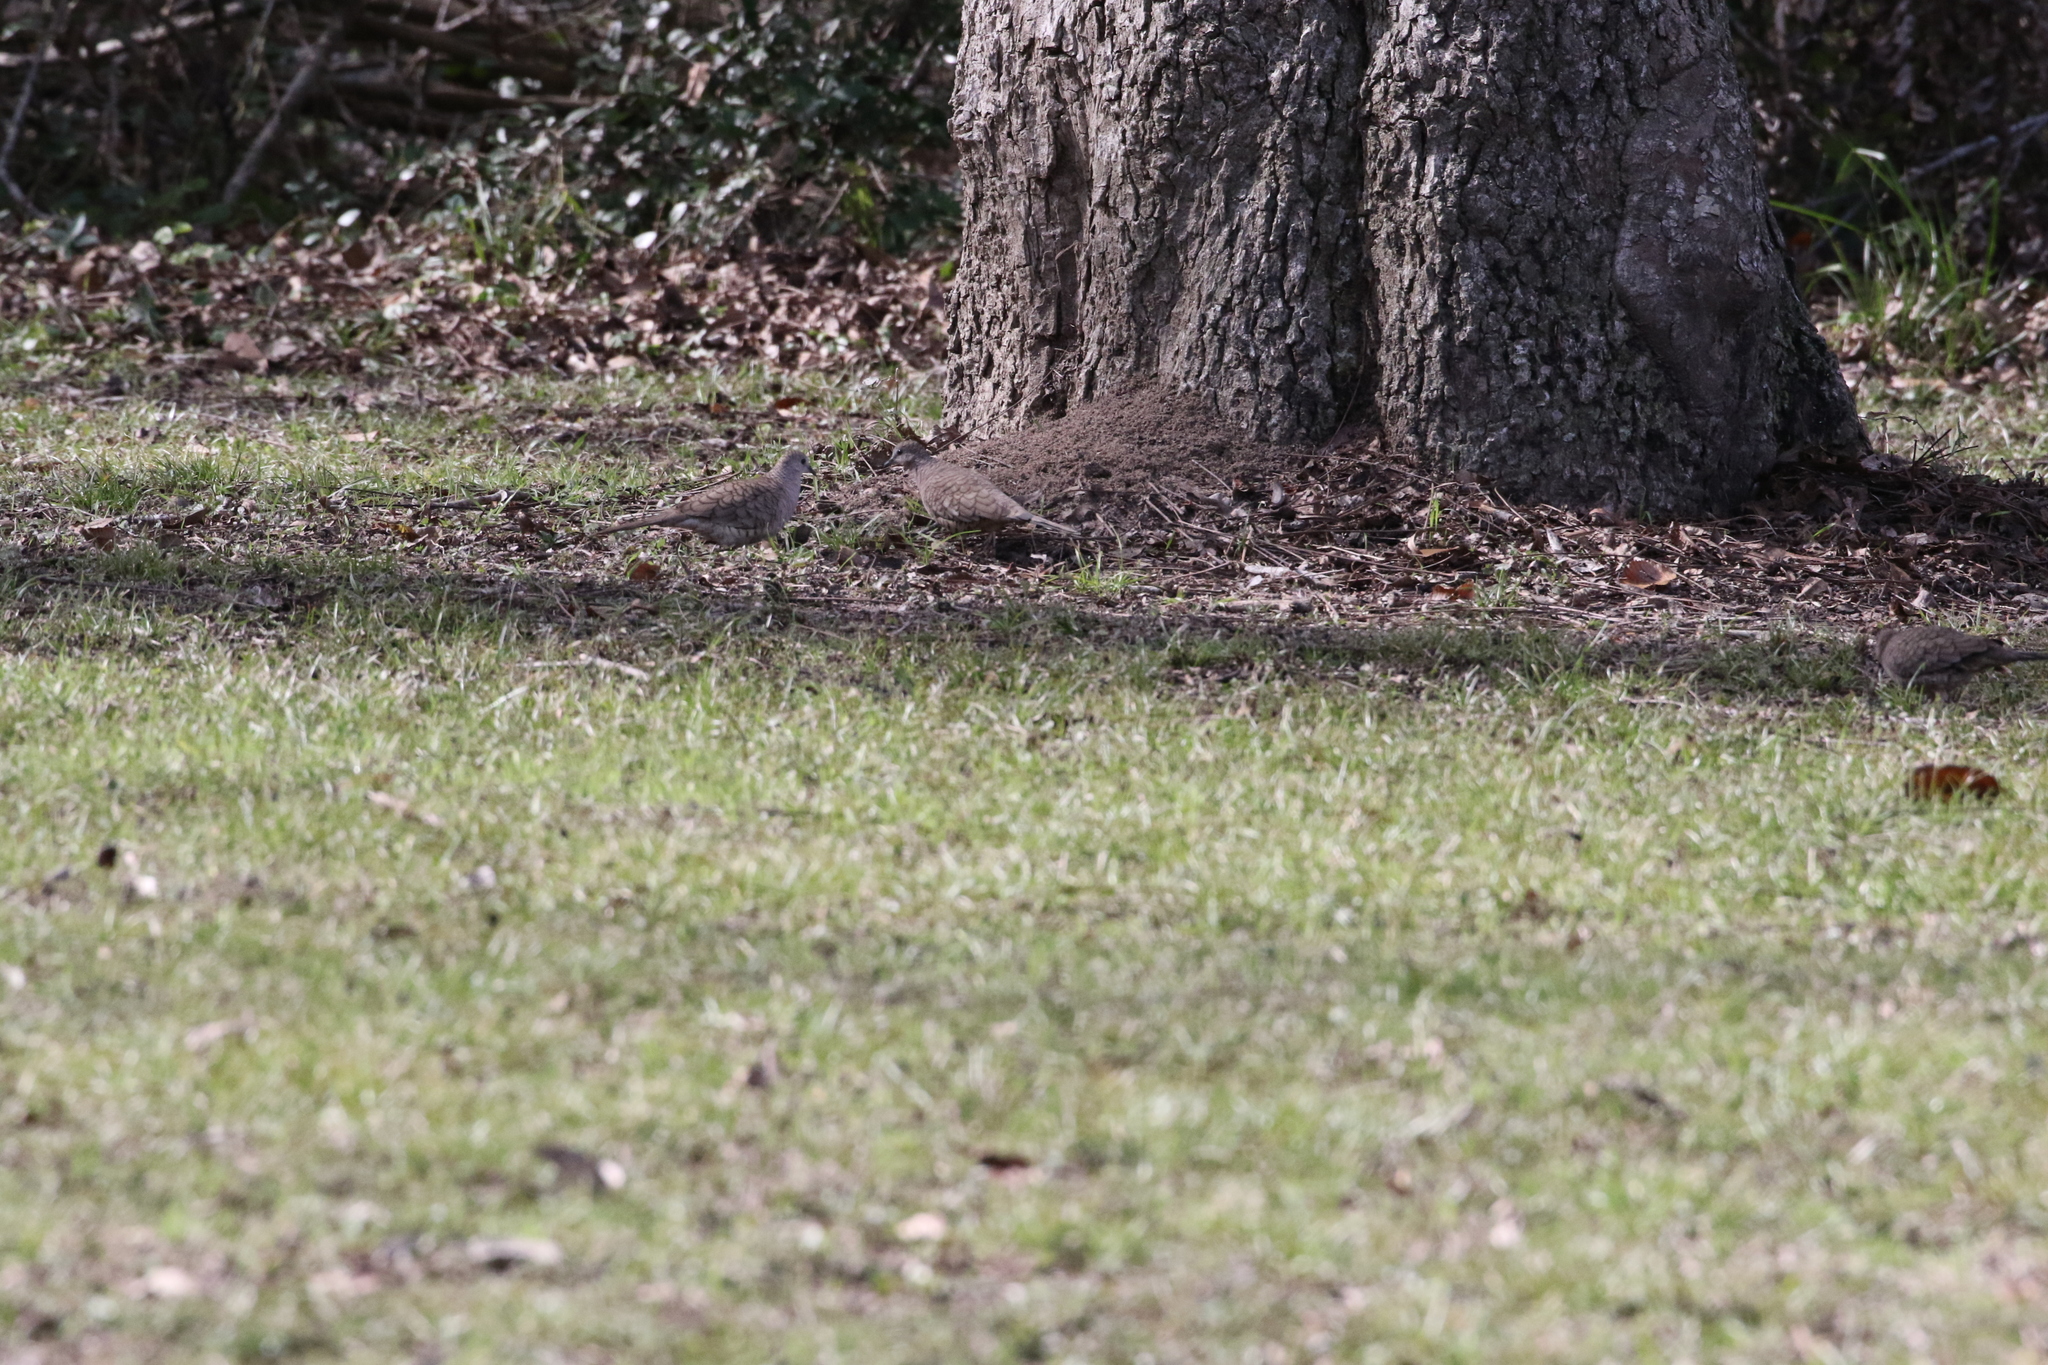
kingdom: Animalia
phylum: Chordata
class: Aves
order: Columbiformes
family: Columbidae
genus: Columbina
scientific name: Columbina inca
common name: Inca dove
